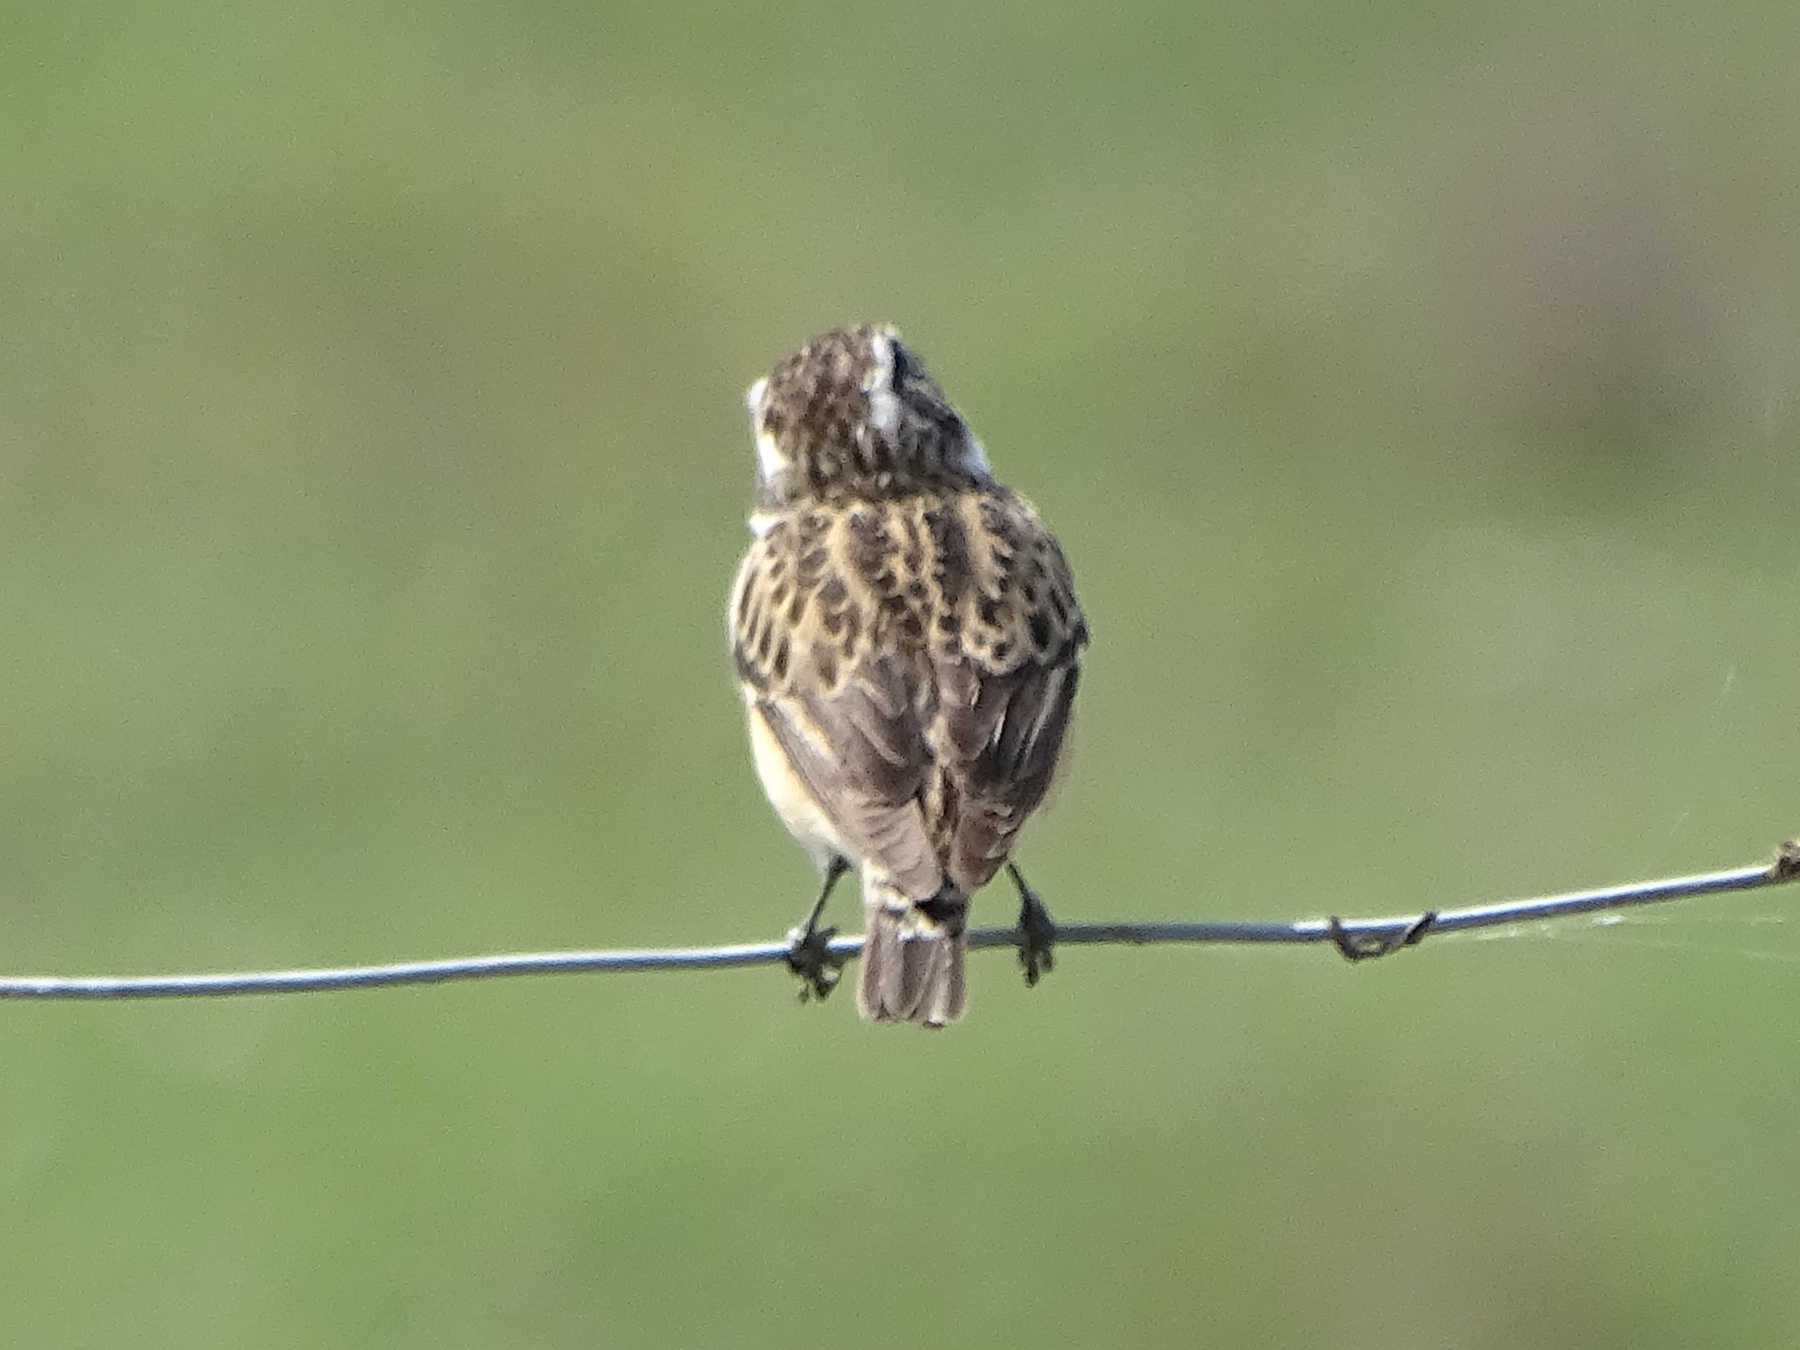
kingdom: Animalia
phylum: Chordata
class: Aves
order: Passeriformes
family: Muscicapidae
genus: Saxicola
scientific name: Saxicola rubetra
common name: Whinchat
